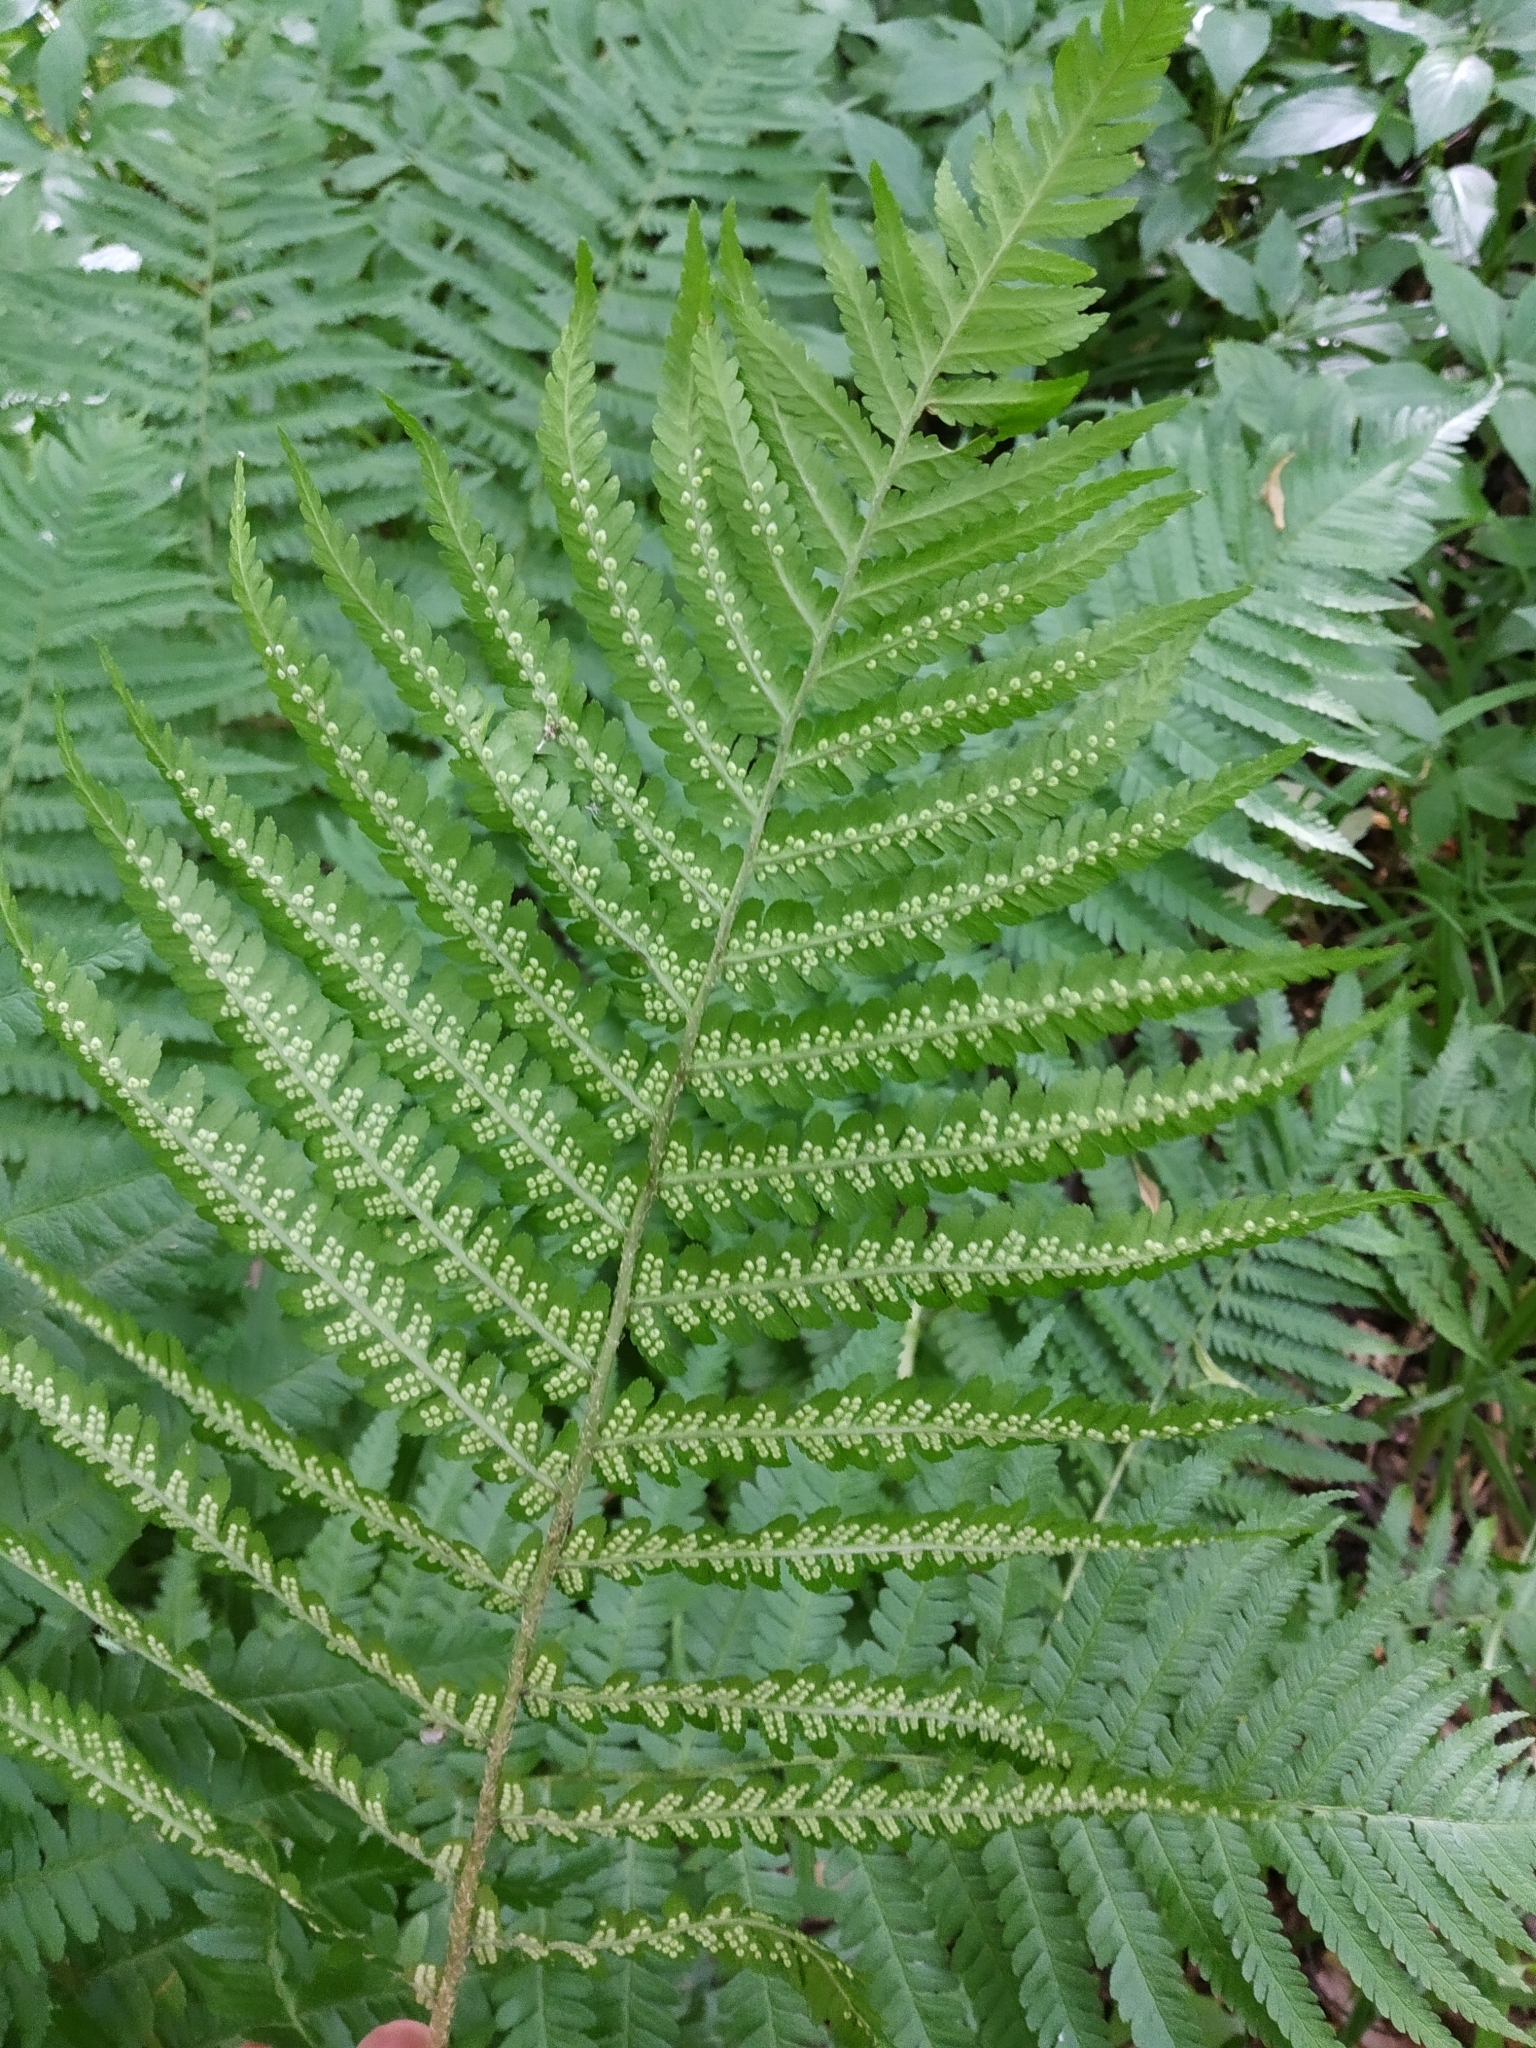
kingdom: Plantae
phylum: Tracheophyta
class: Polypodiopsida
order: Polypodiales
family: Dryopteridaceae
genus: Dryopteris
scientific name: Dryopteris filix-mas
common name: Male fern
